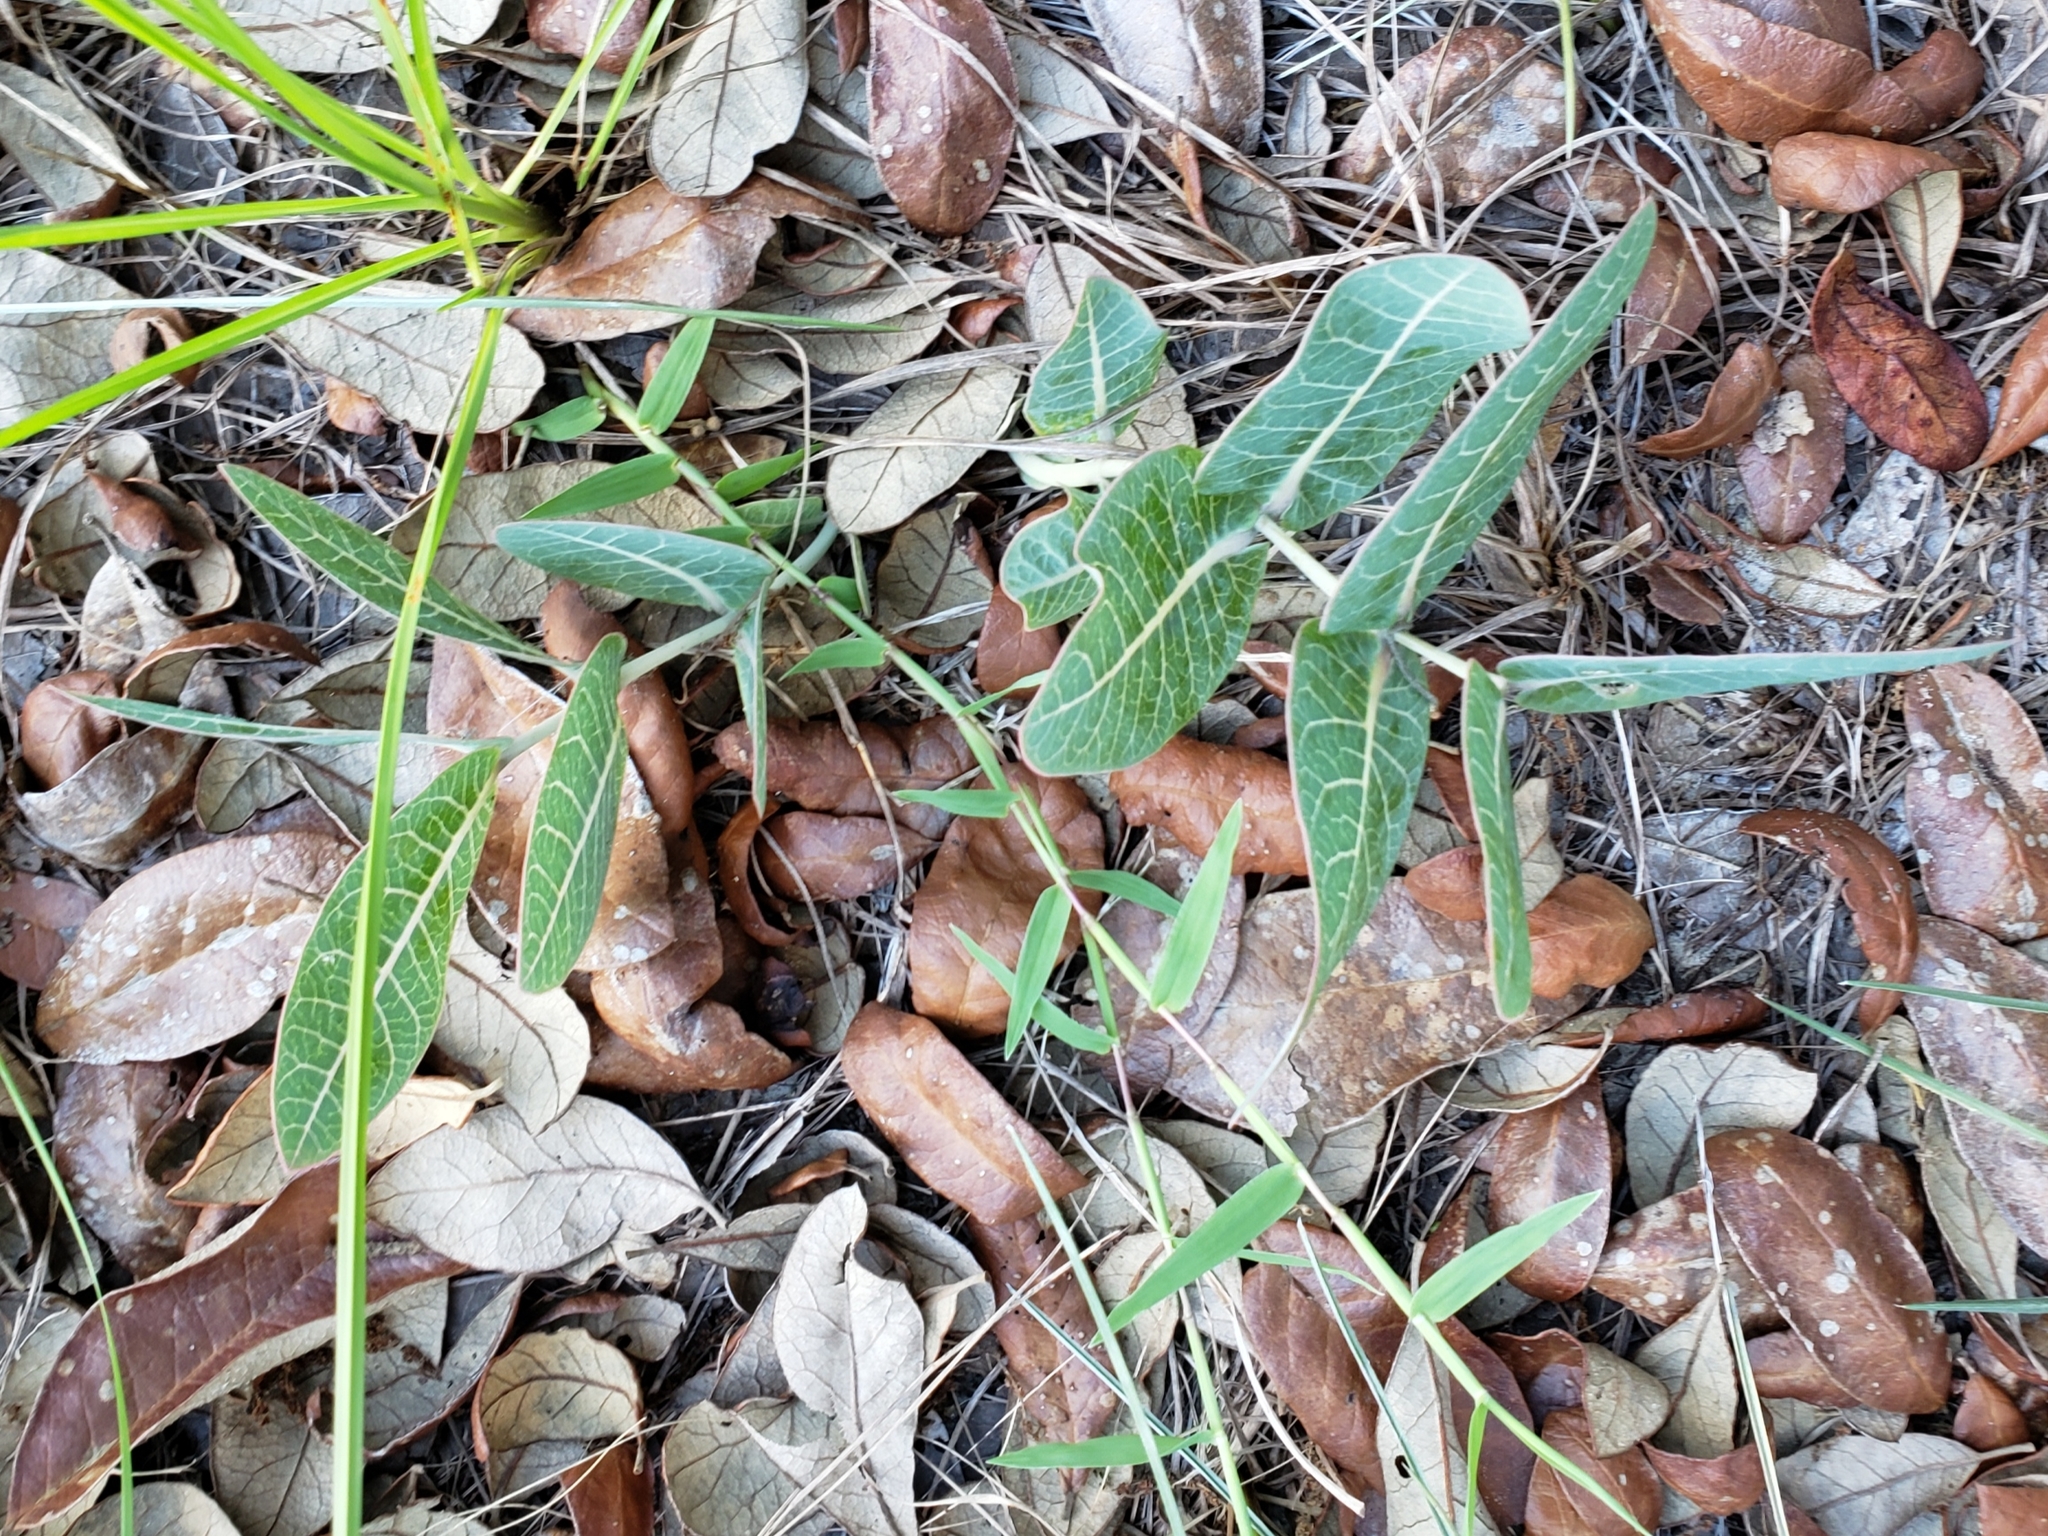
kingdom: Plantae
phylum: Tracheophyta
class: Magnoliopsida
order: Gentianales
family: Apocynaceae
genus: Asclepias
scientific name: Asclepias humistrata
